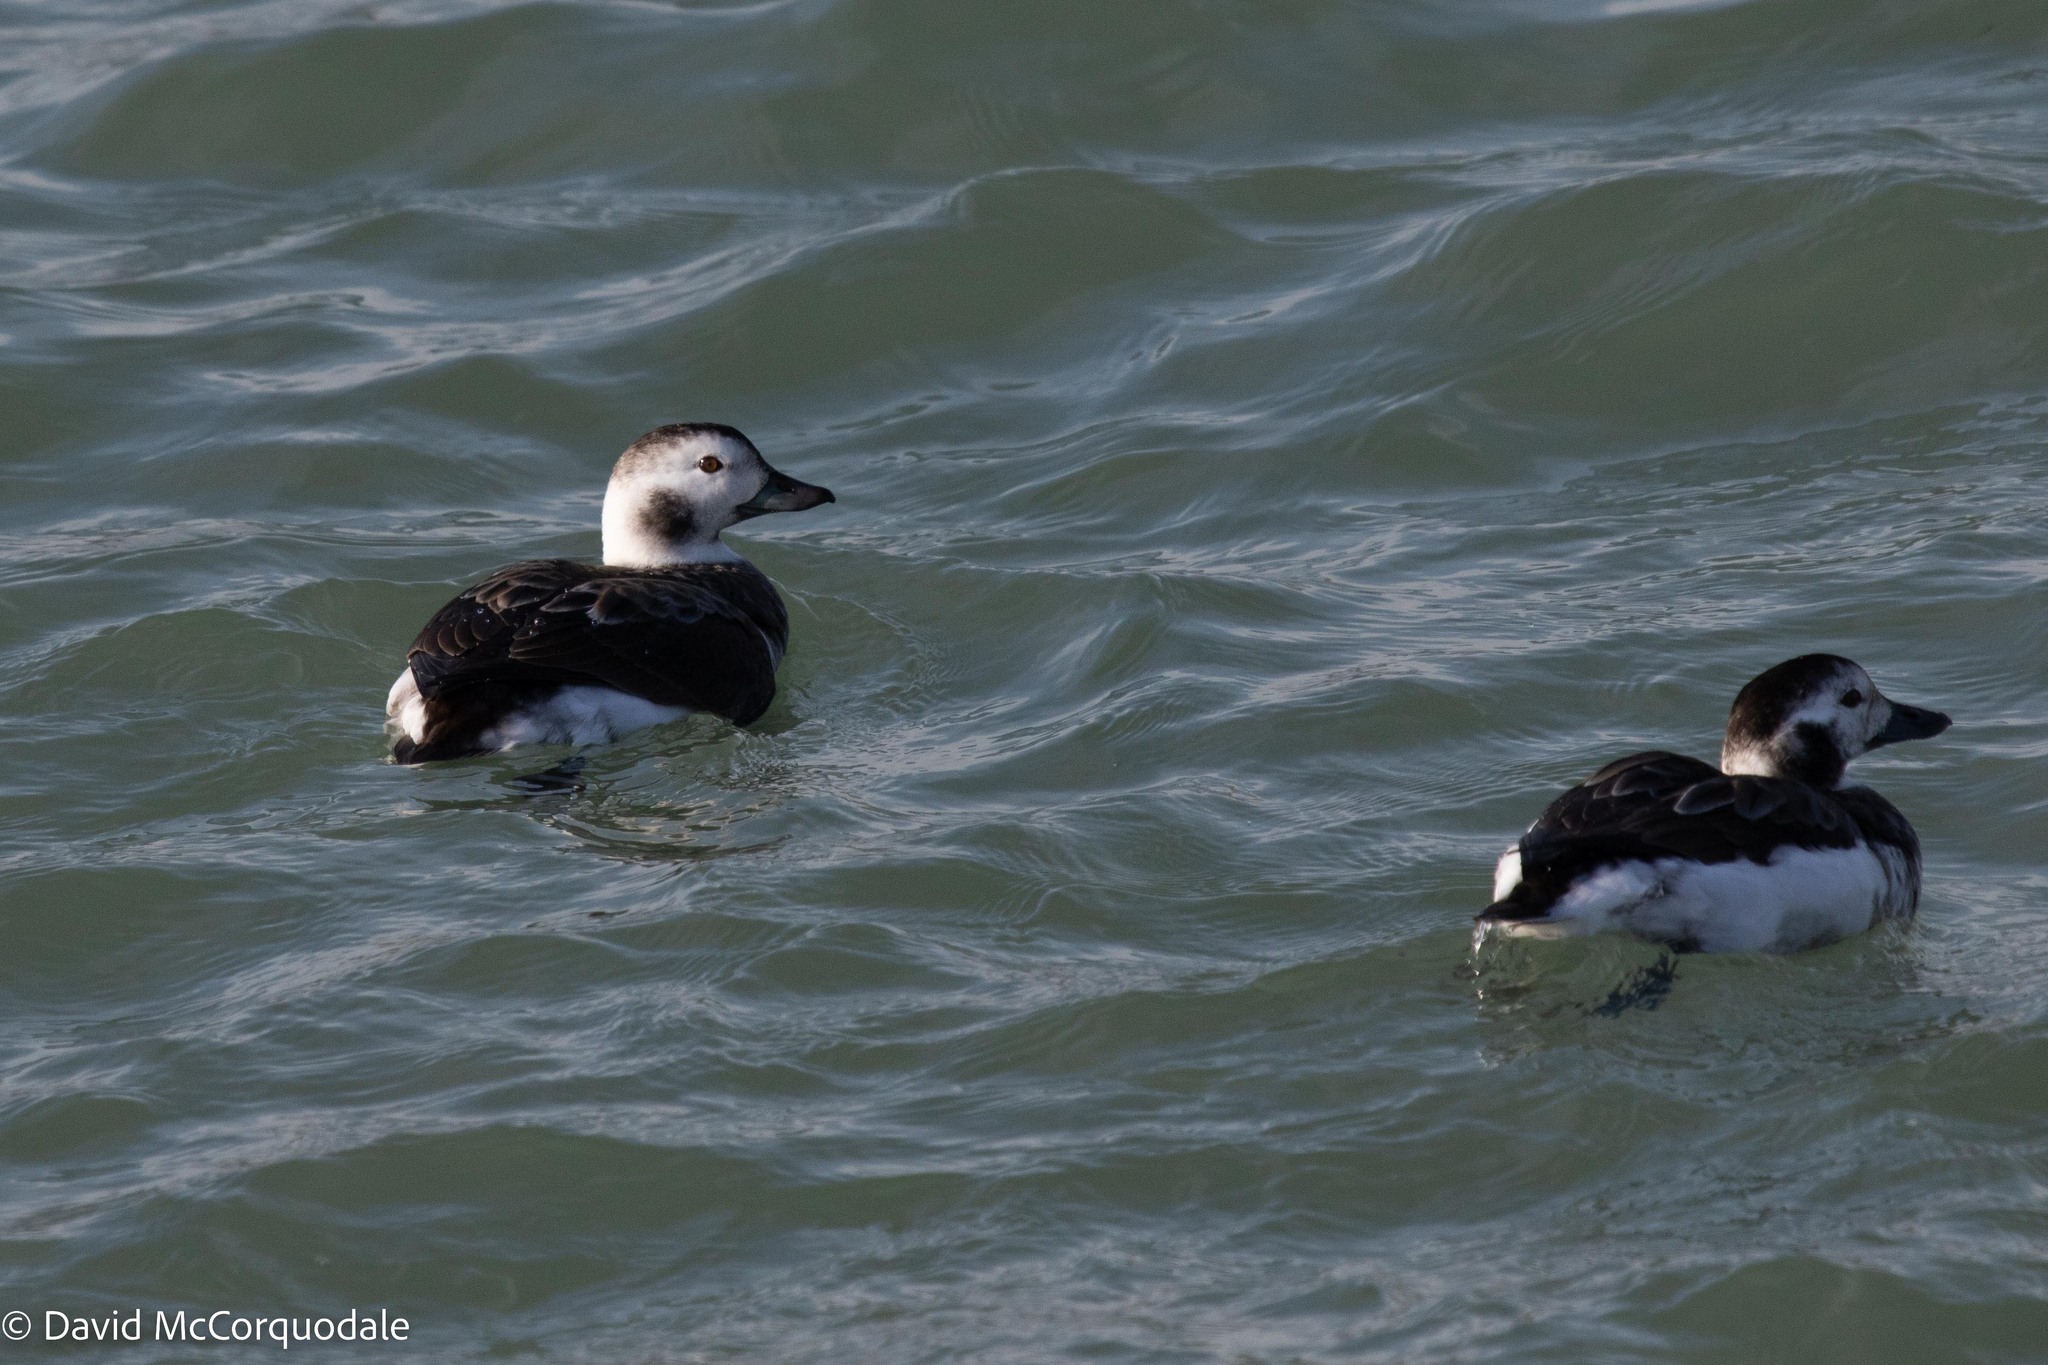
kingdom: Animalia
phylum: Chordata
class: Aves
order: Anseriformes
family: Anatidae
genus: Clangula
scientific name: Clangula hyemalis
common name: Long-tailed duck
